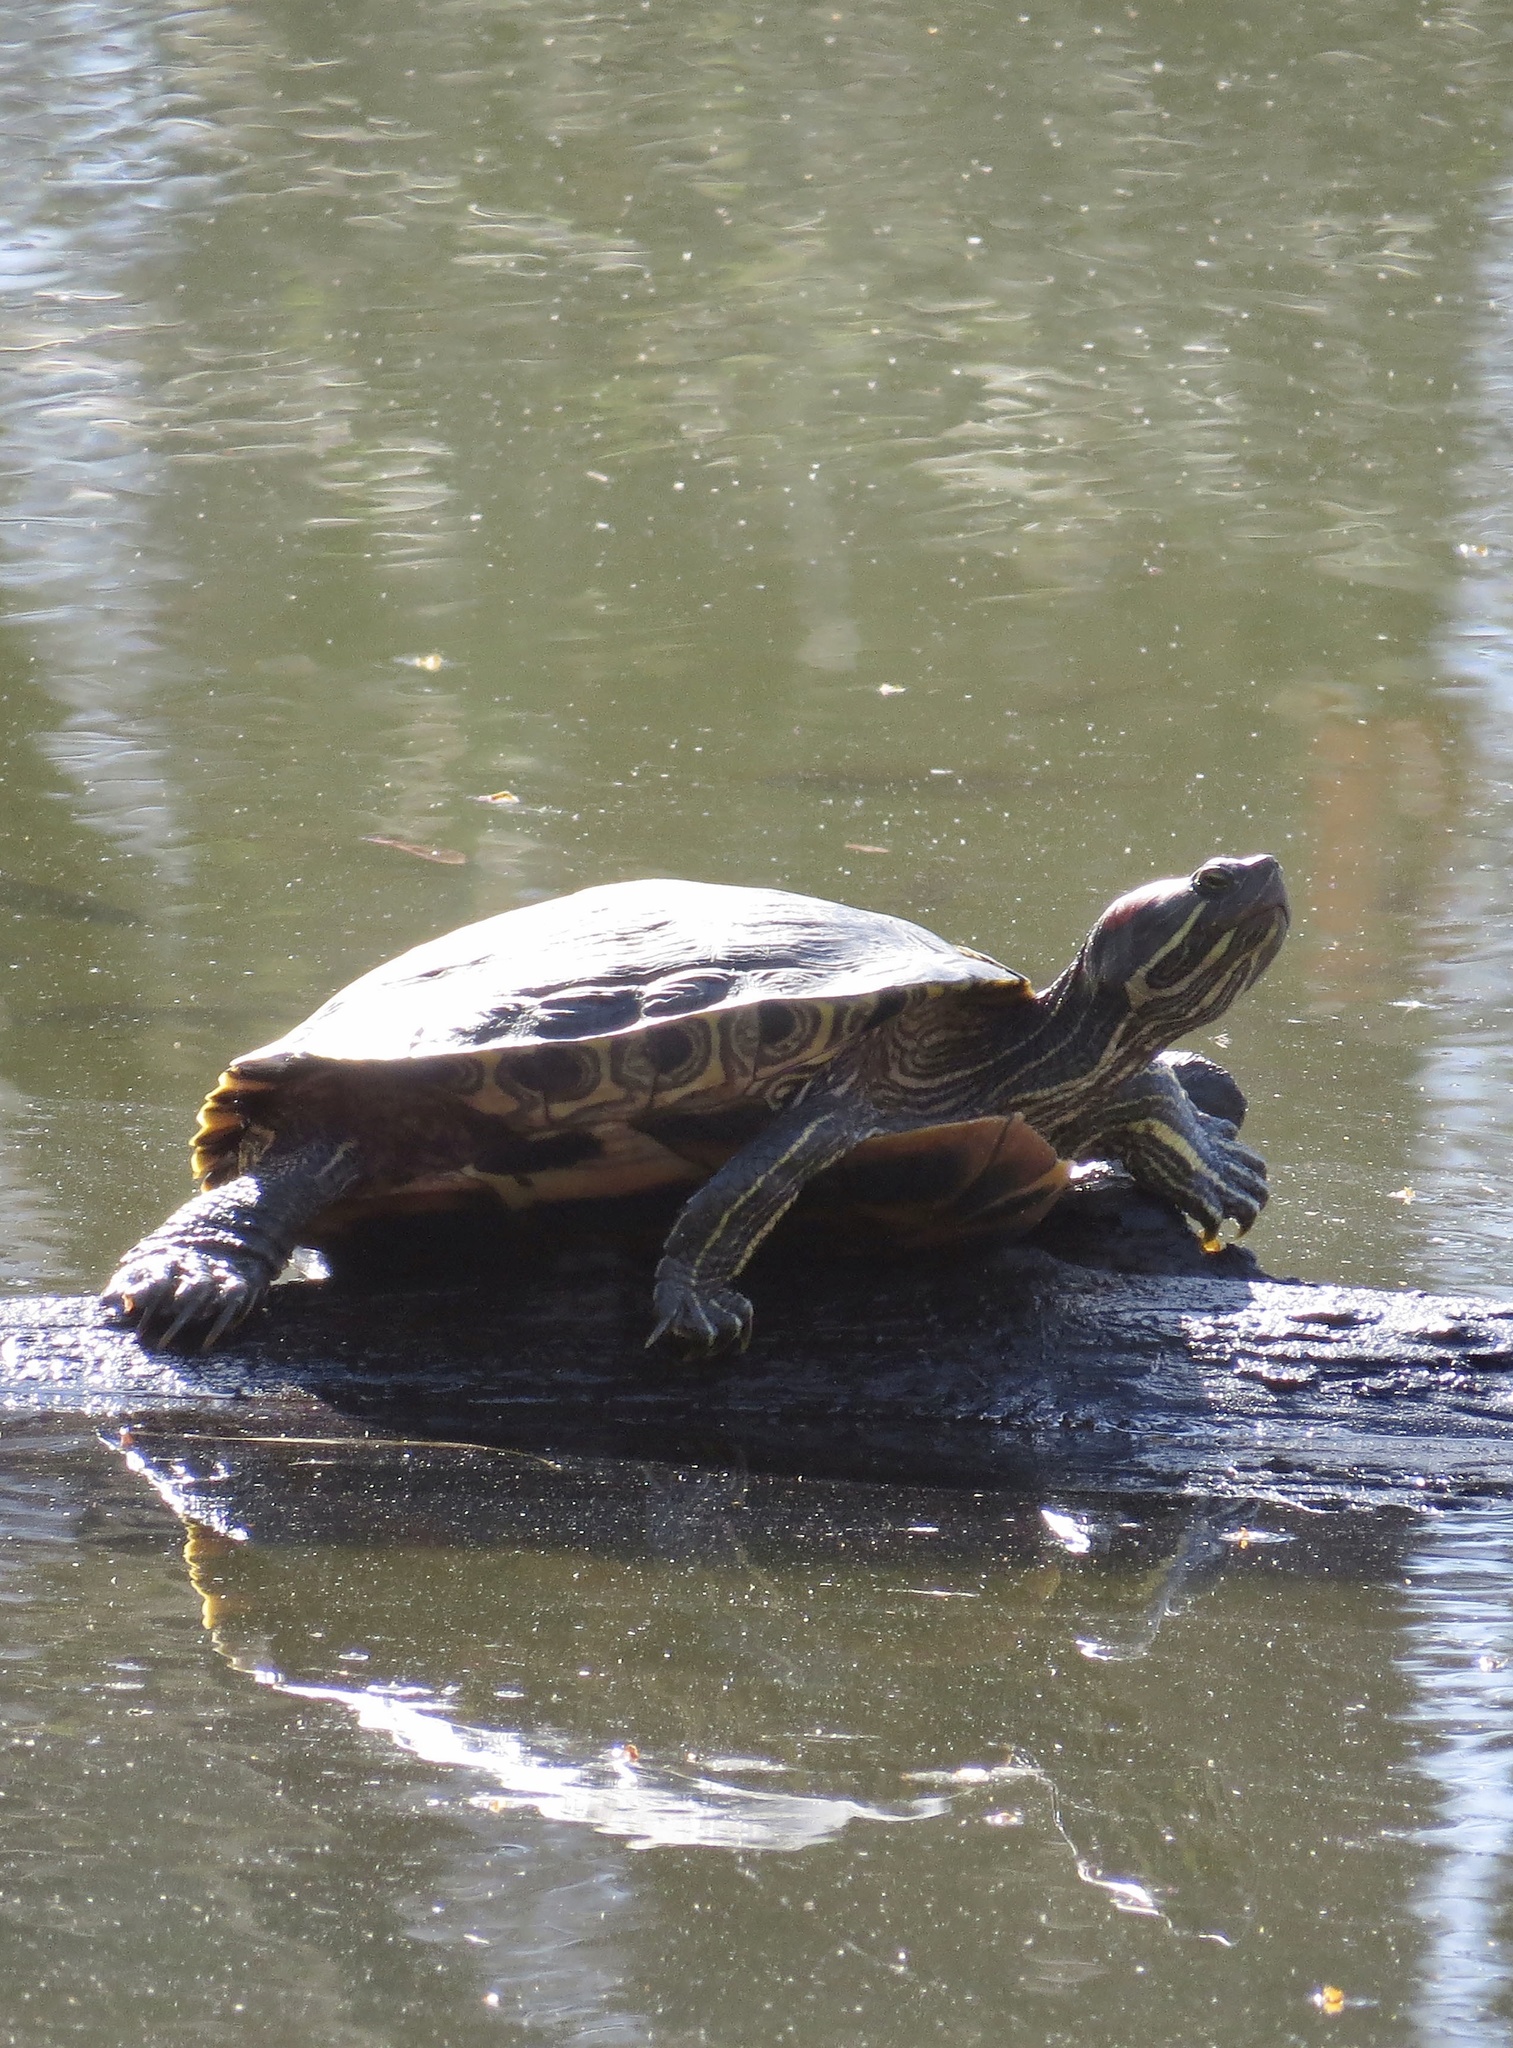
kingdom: Animalia
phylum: Chordata
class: Testudines
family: Emydidae
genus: Trachemys
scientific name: Trachemys scripta
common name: Slider
